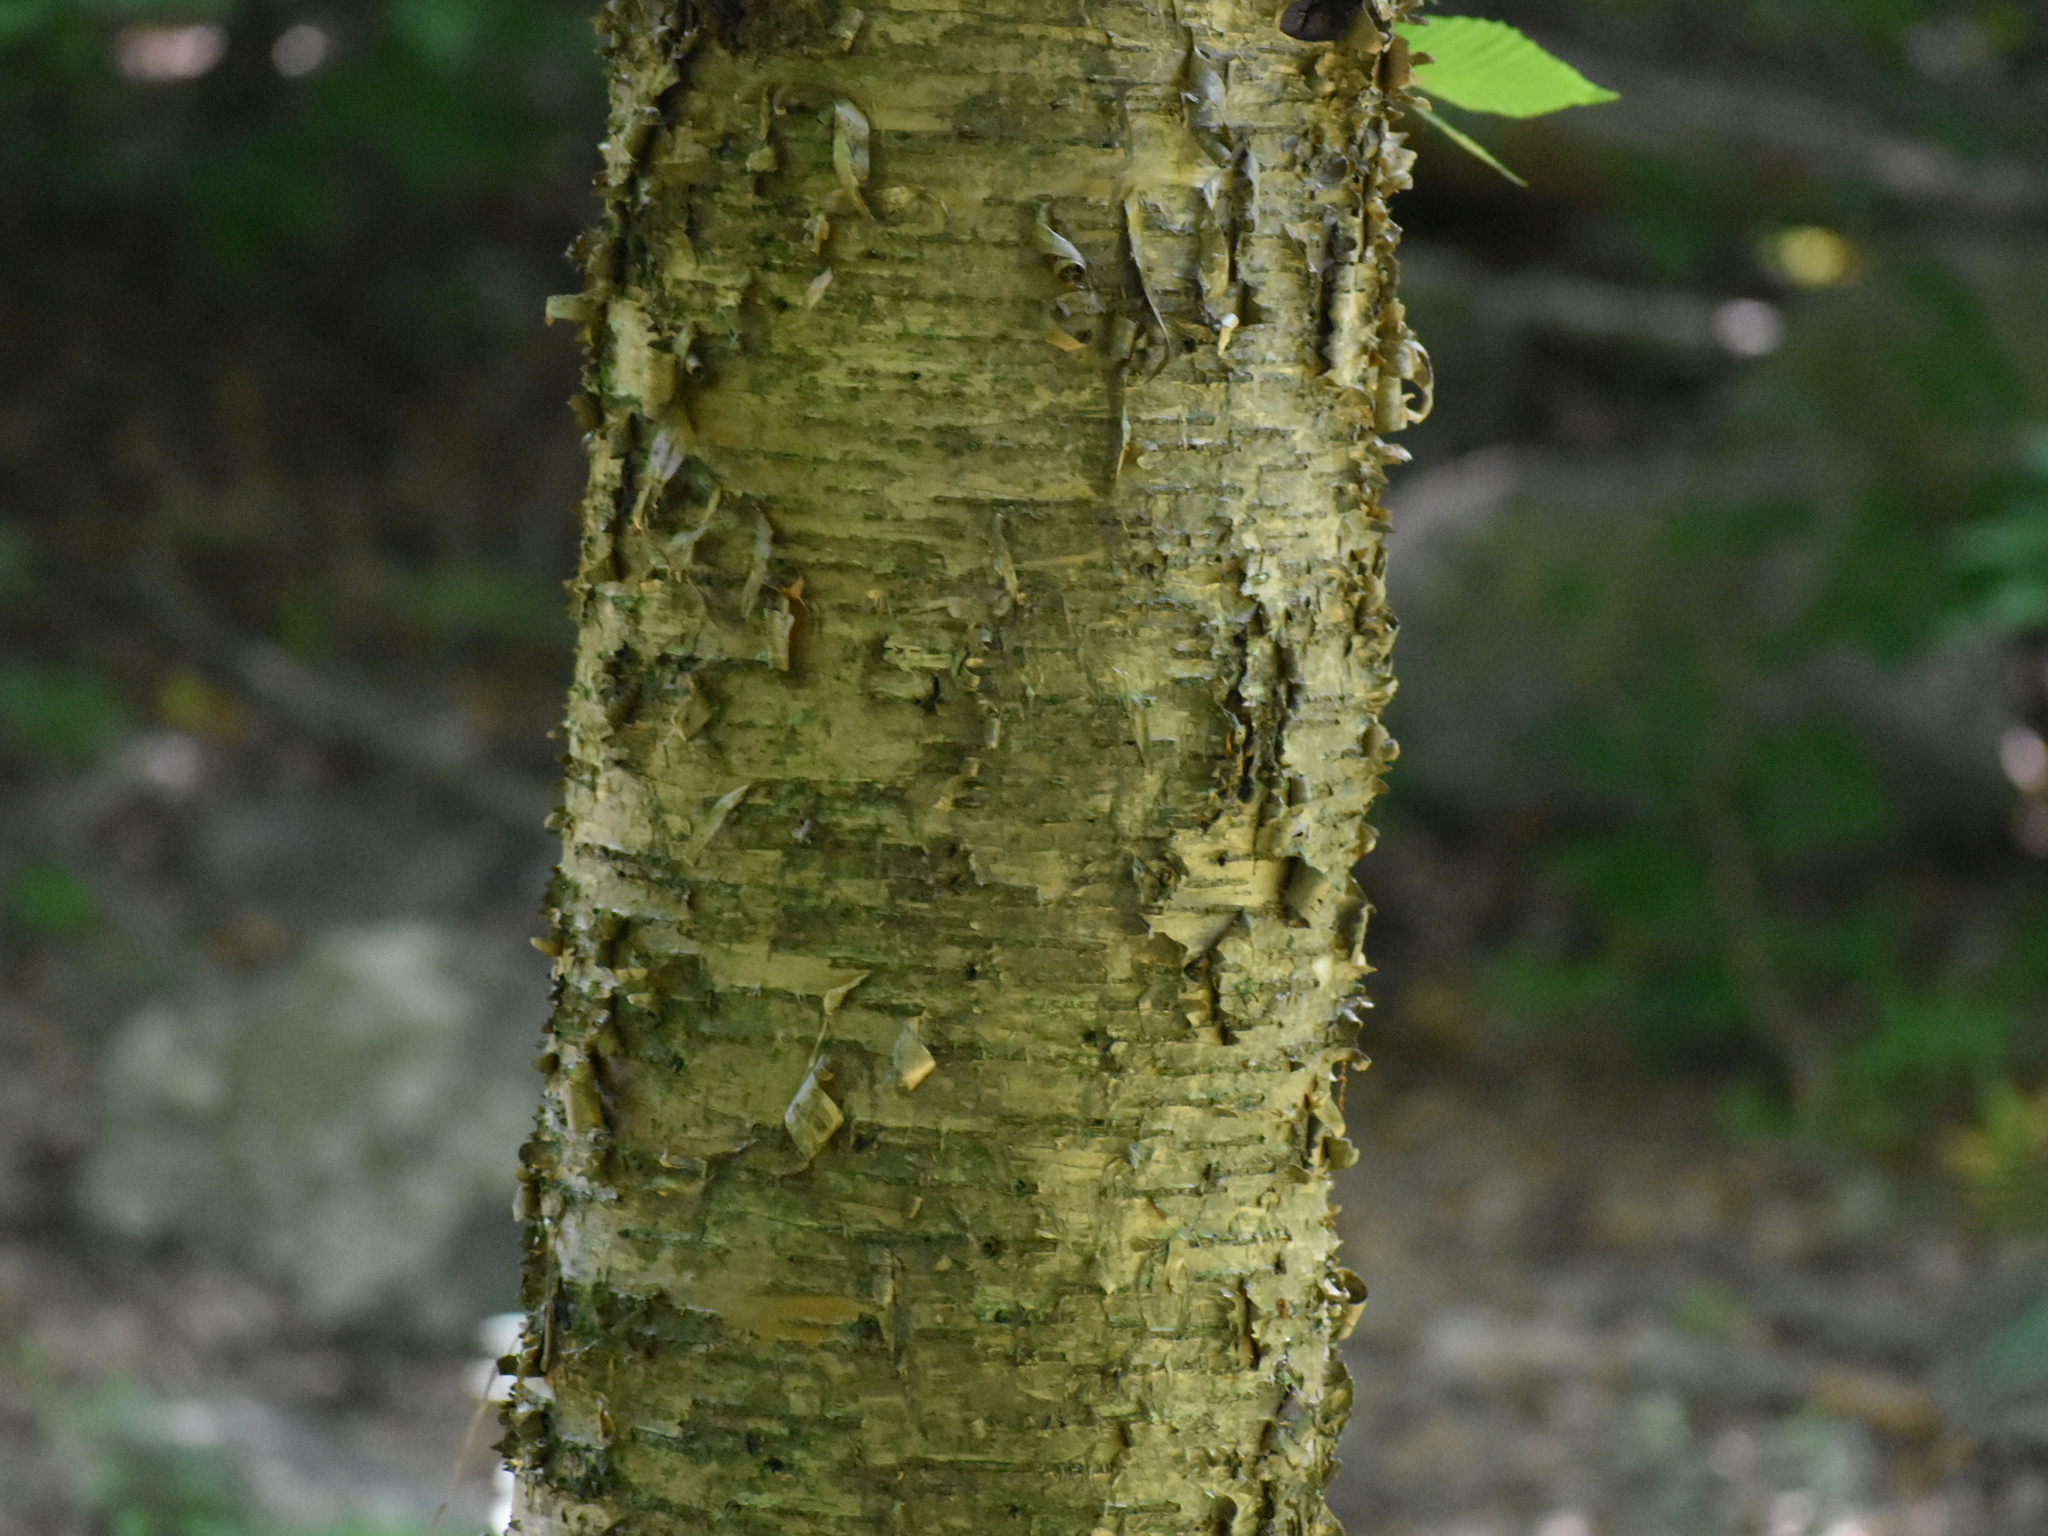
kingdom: Plantae
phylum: Tracheophyta
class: Magnoliopsida
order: Fagales
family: Betulaceae
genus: Betula
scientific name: Betula alleghaniensis
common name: Yellow birch
